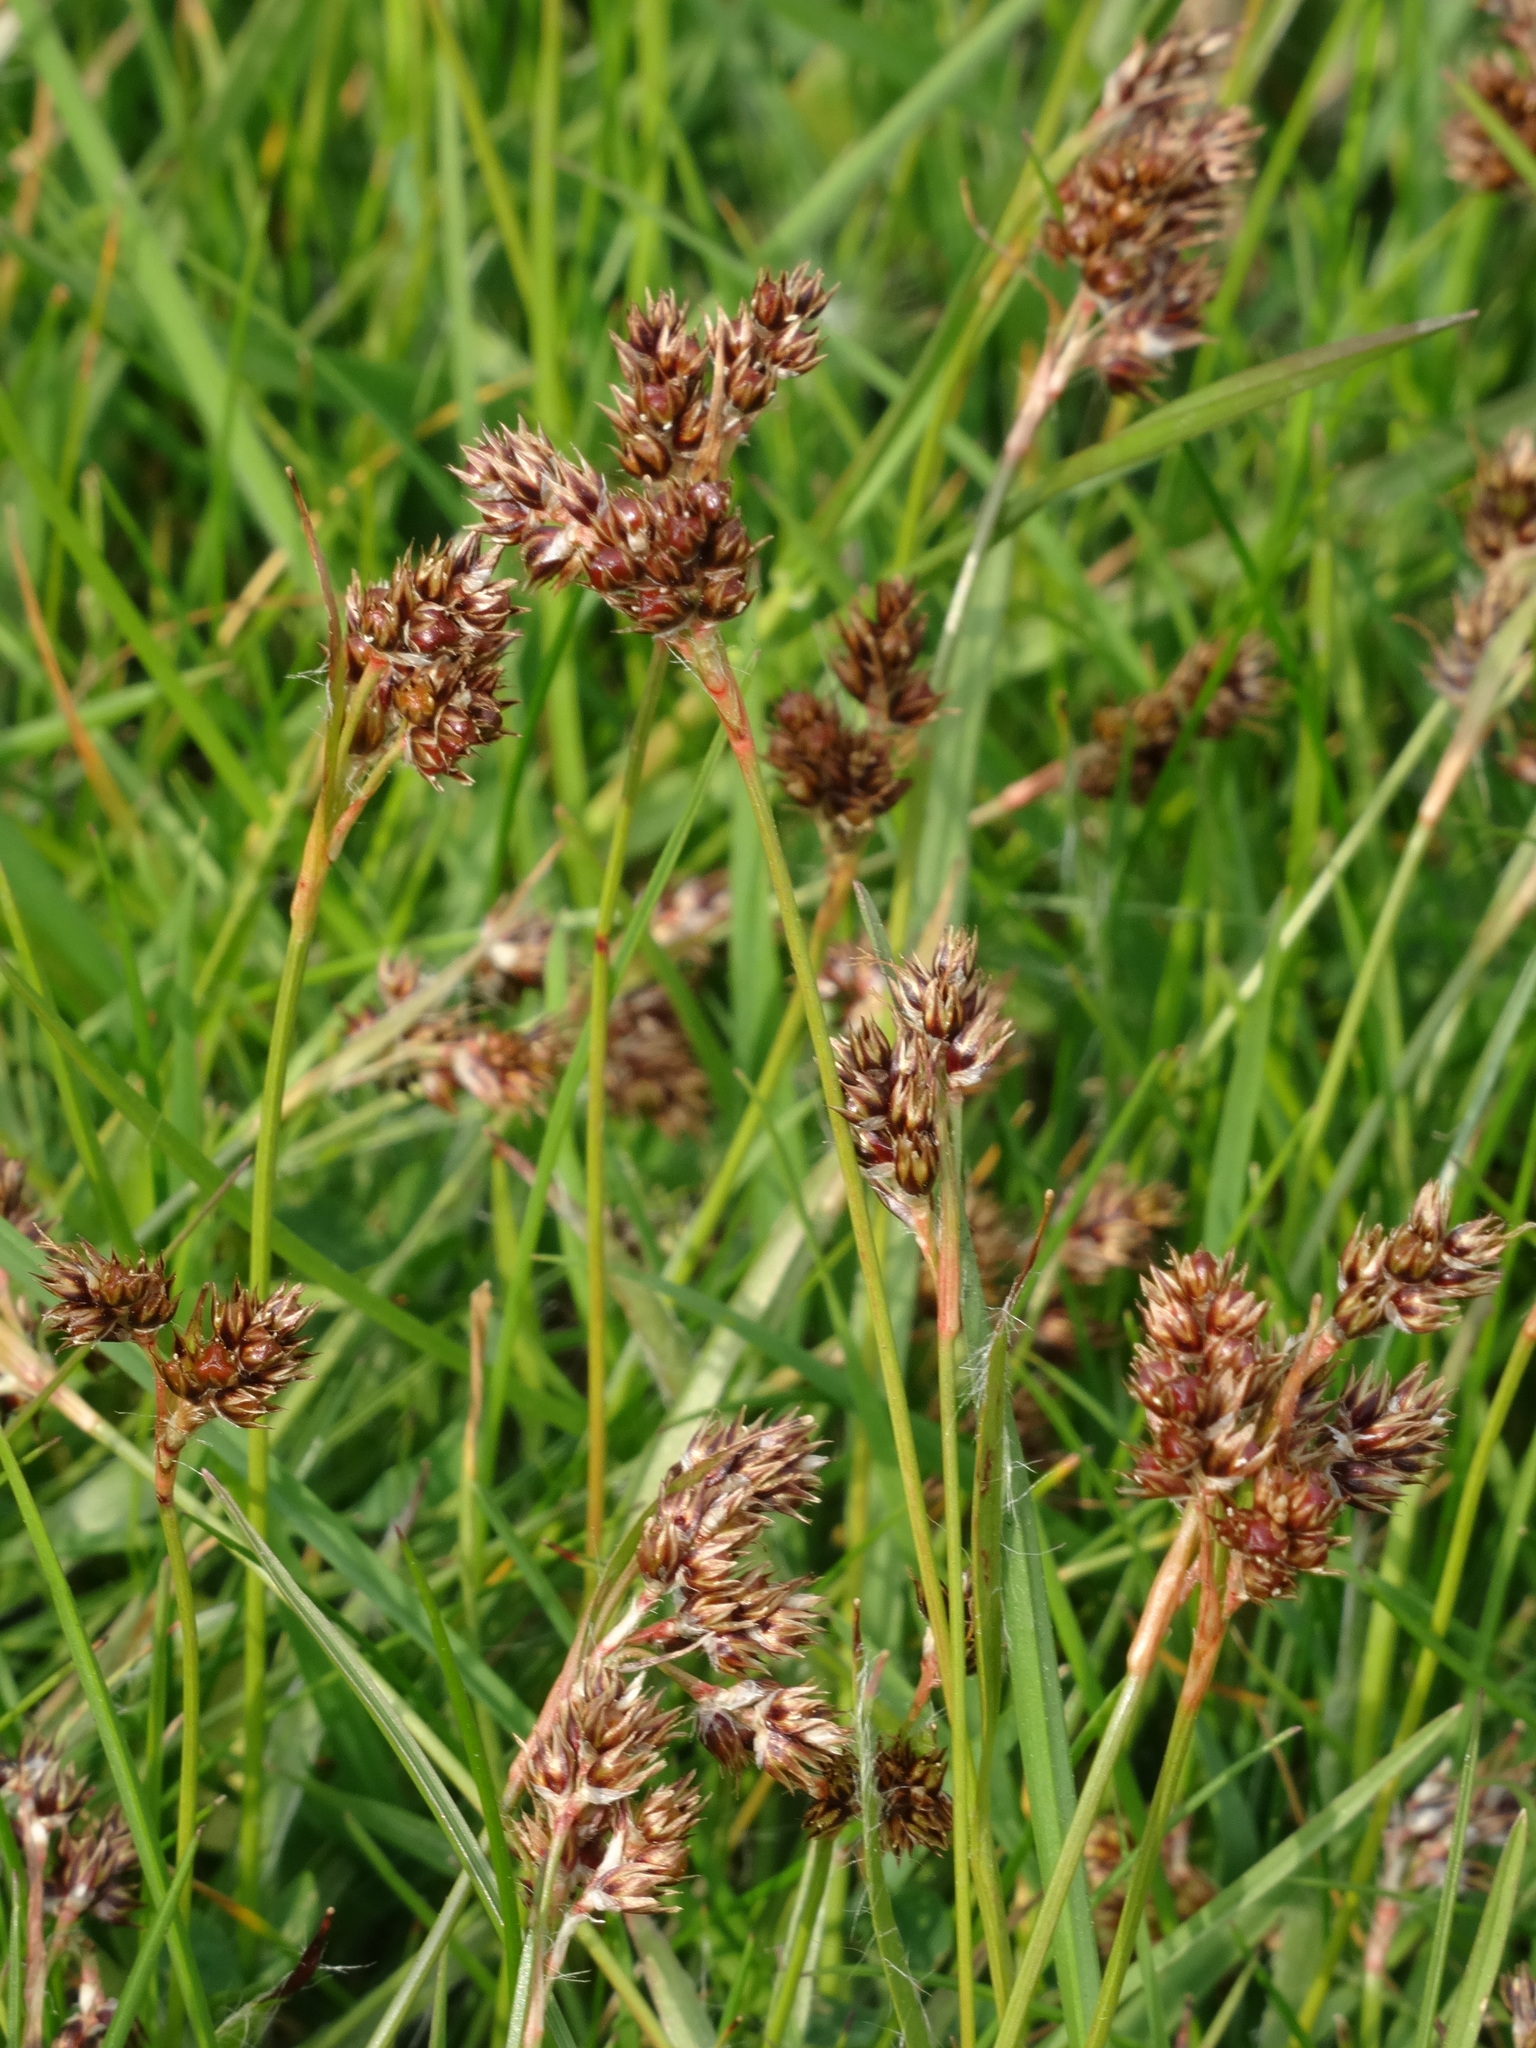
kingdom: Plantae
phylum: Tracheophyta
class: Liliopsida
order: Poales
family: Juncaceae
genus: Luzula
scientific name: Luzula campestris
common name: Field wood-rush
